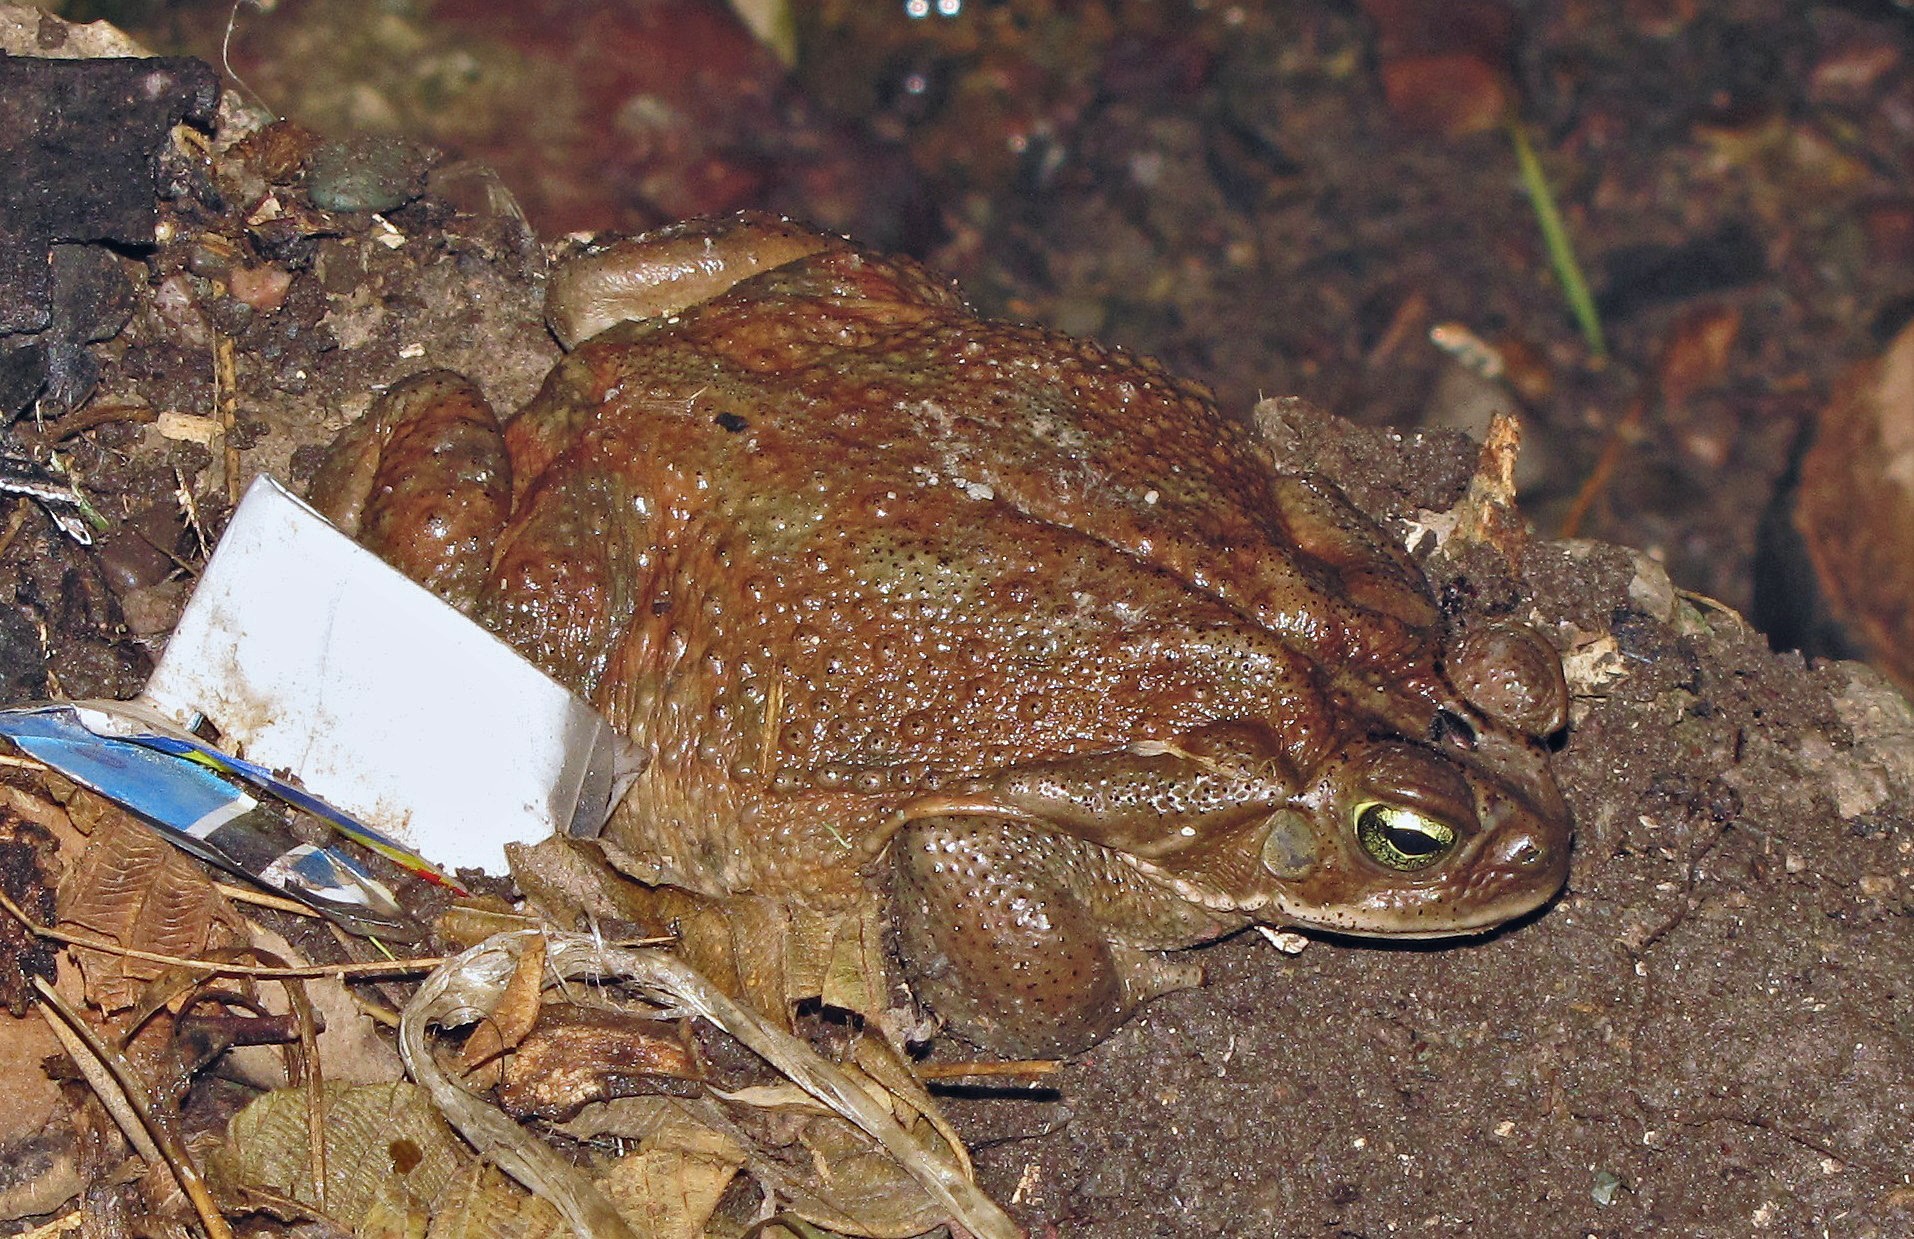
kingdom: Animalia
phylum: Chordata
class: Amphibia
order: Anura
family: Bufonidae
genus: Rhinella
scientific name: Rhinella arenarum
